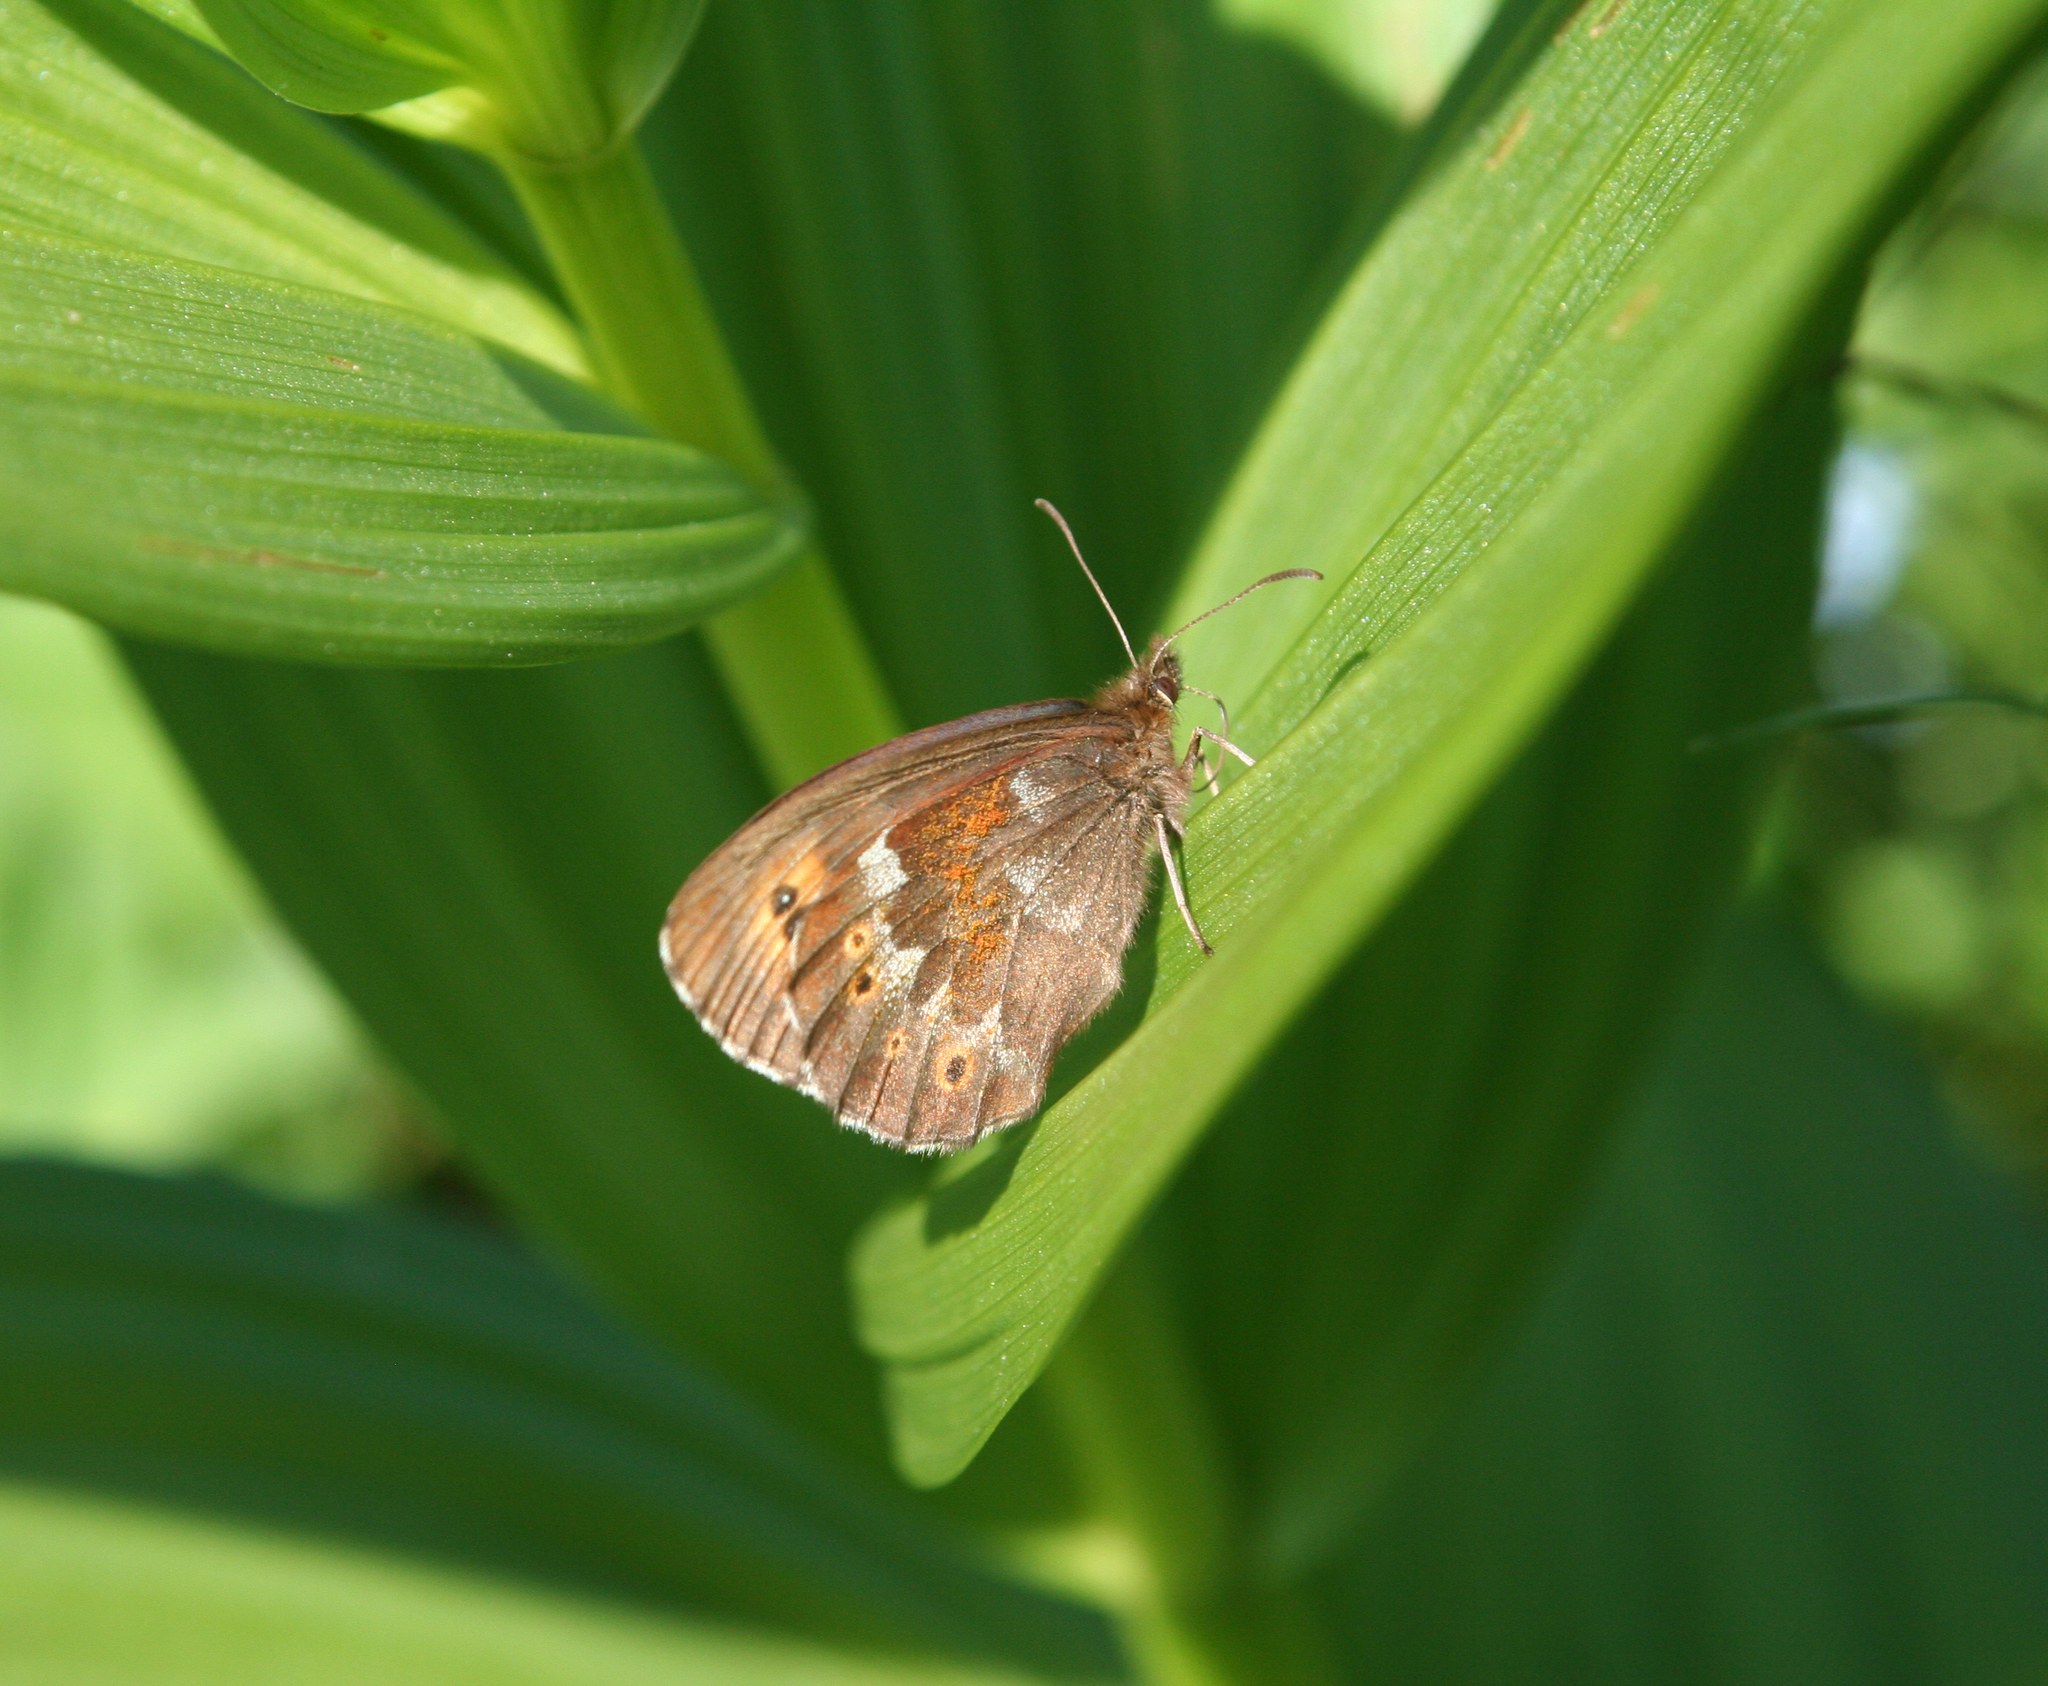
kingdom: Animalia
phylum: Arthropoda
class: Insecta
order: Lepidoptera
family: Nymphalidae
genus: Erebia
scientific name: Erebia jeniseiensis
